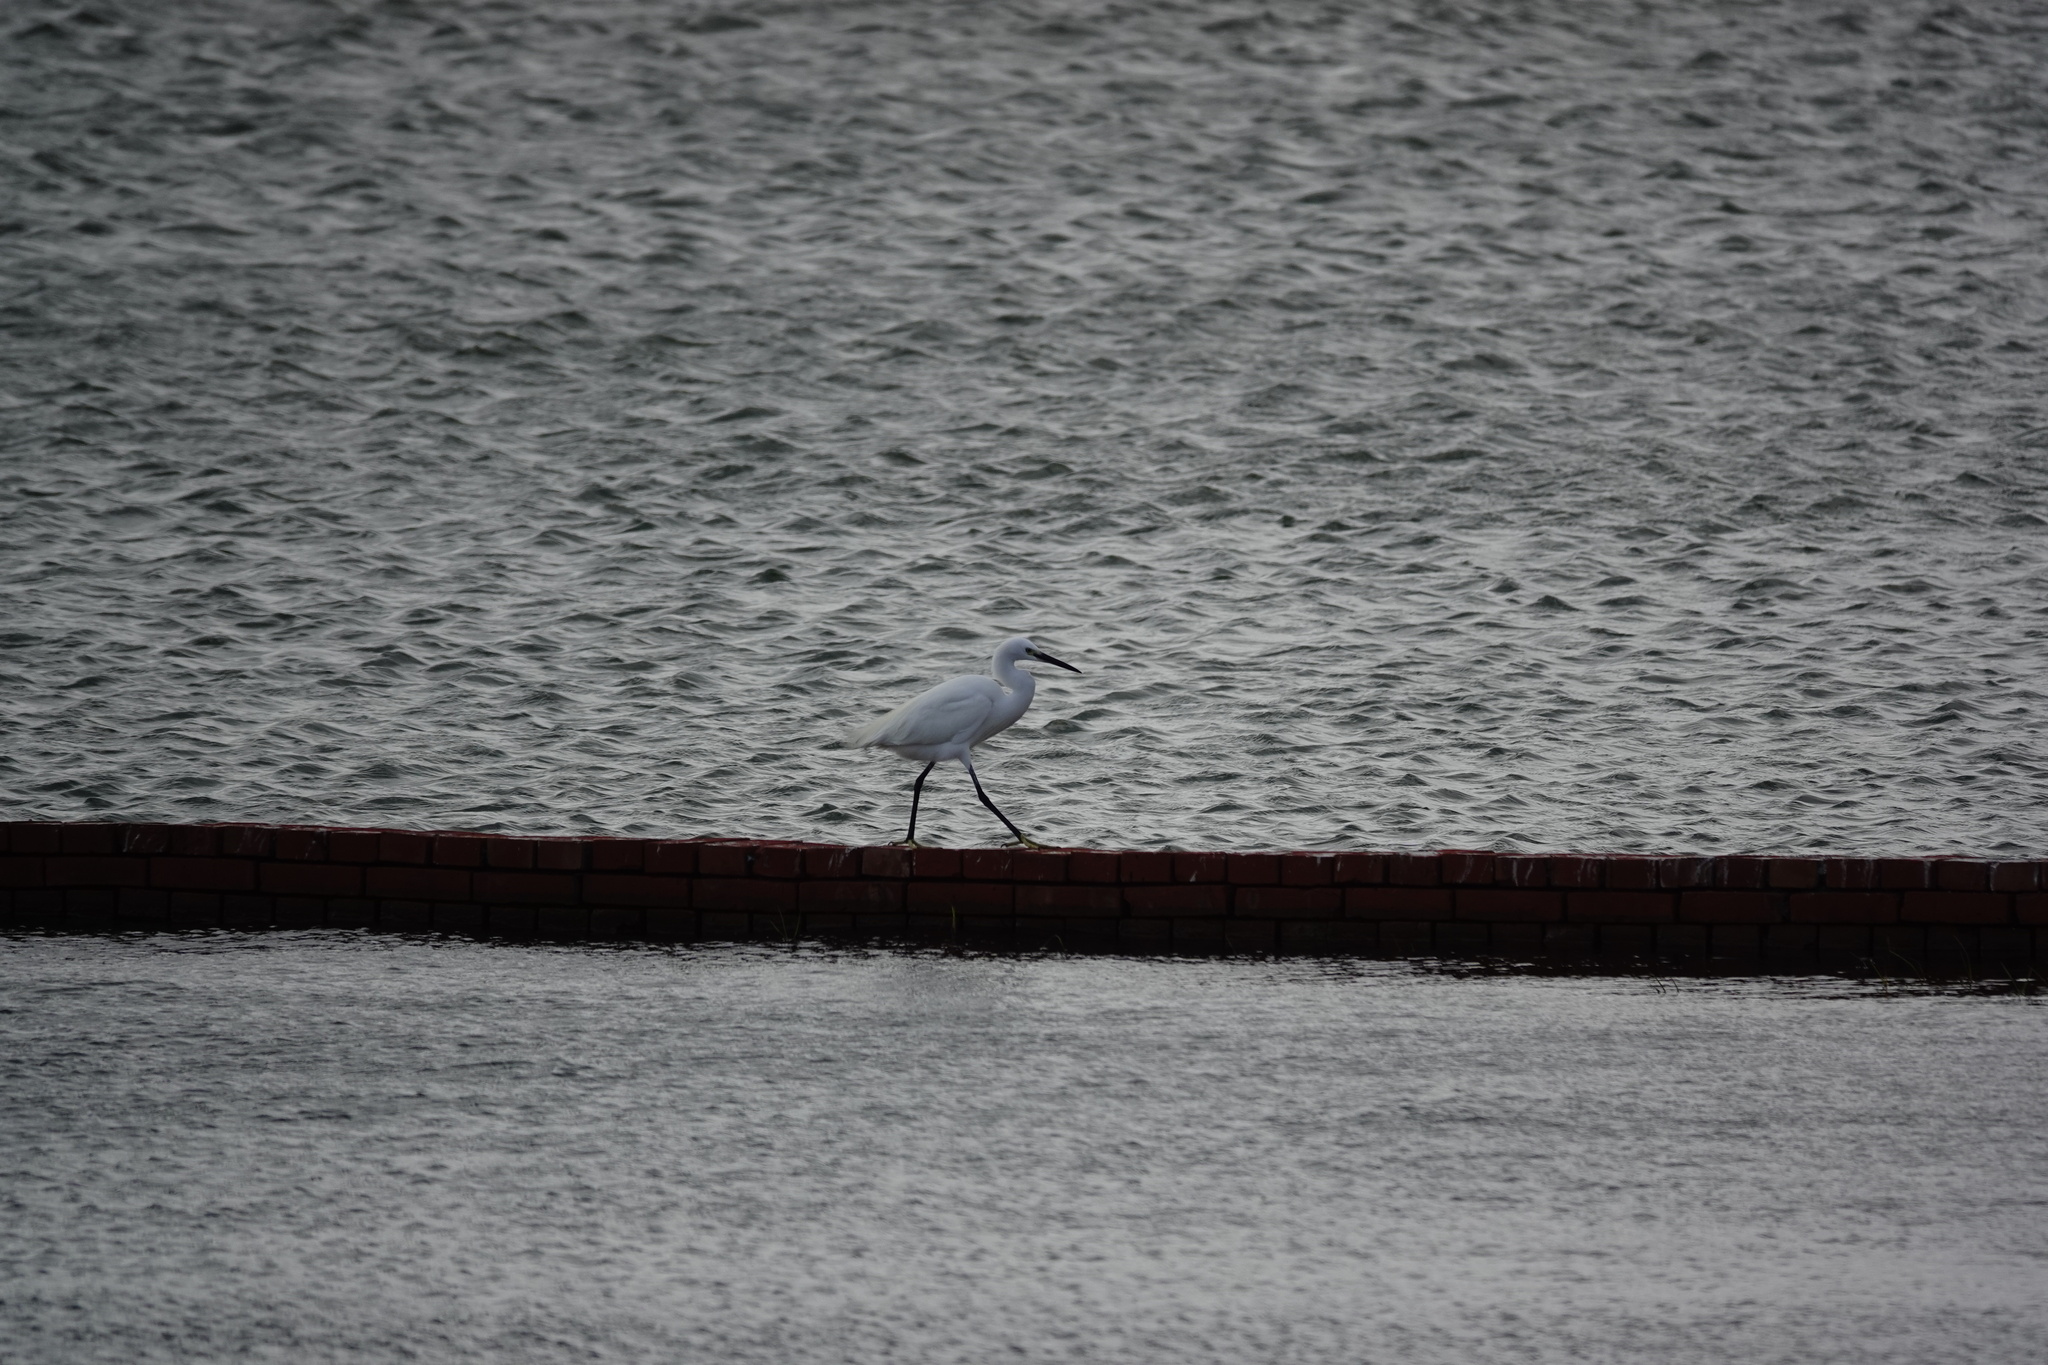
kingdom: Animalia
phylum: Chordata
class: Aves
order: Pelecaniformes
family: Ardeidae
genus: Egretta
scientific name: Egretta garzetta
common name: Little egret
